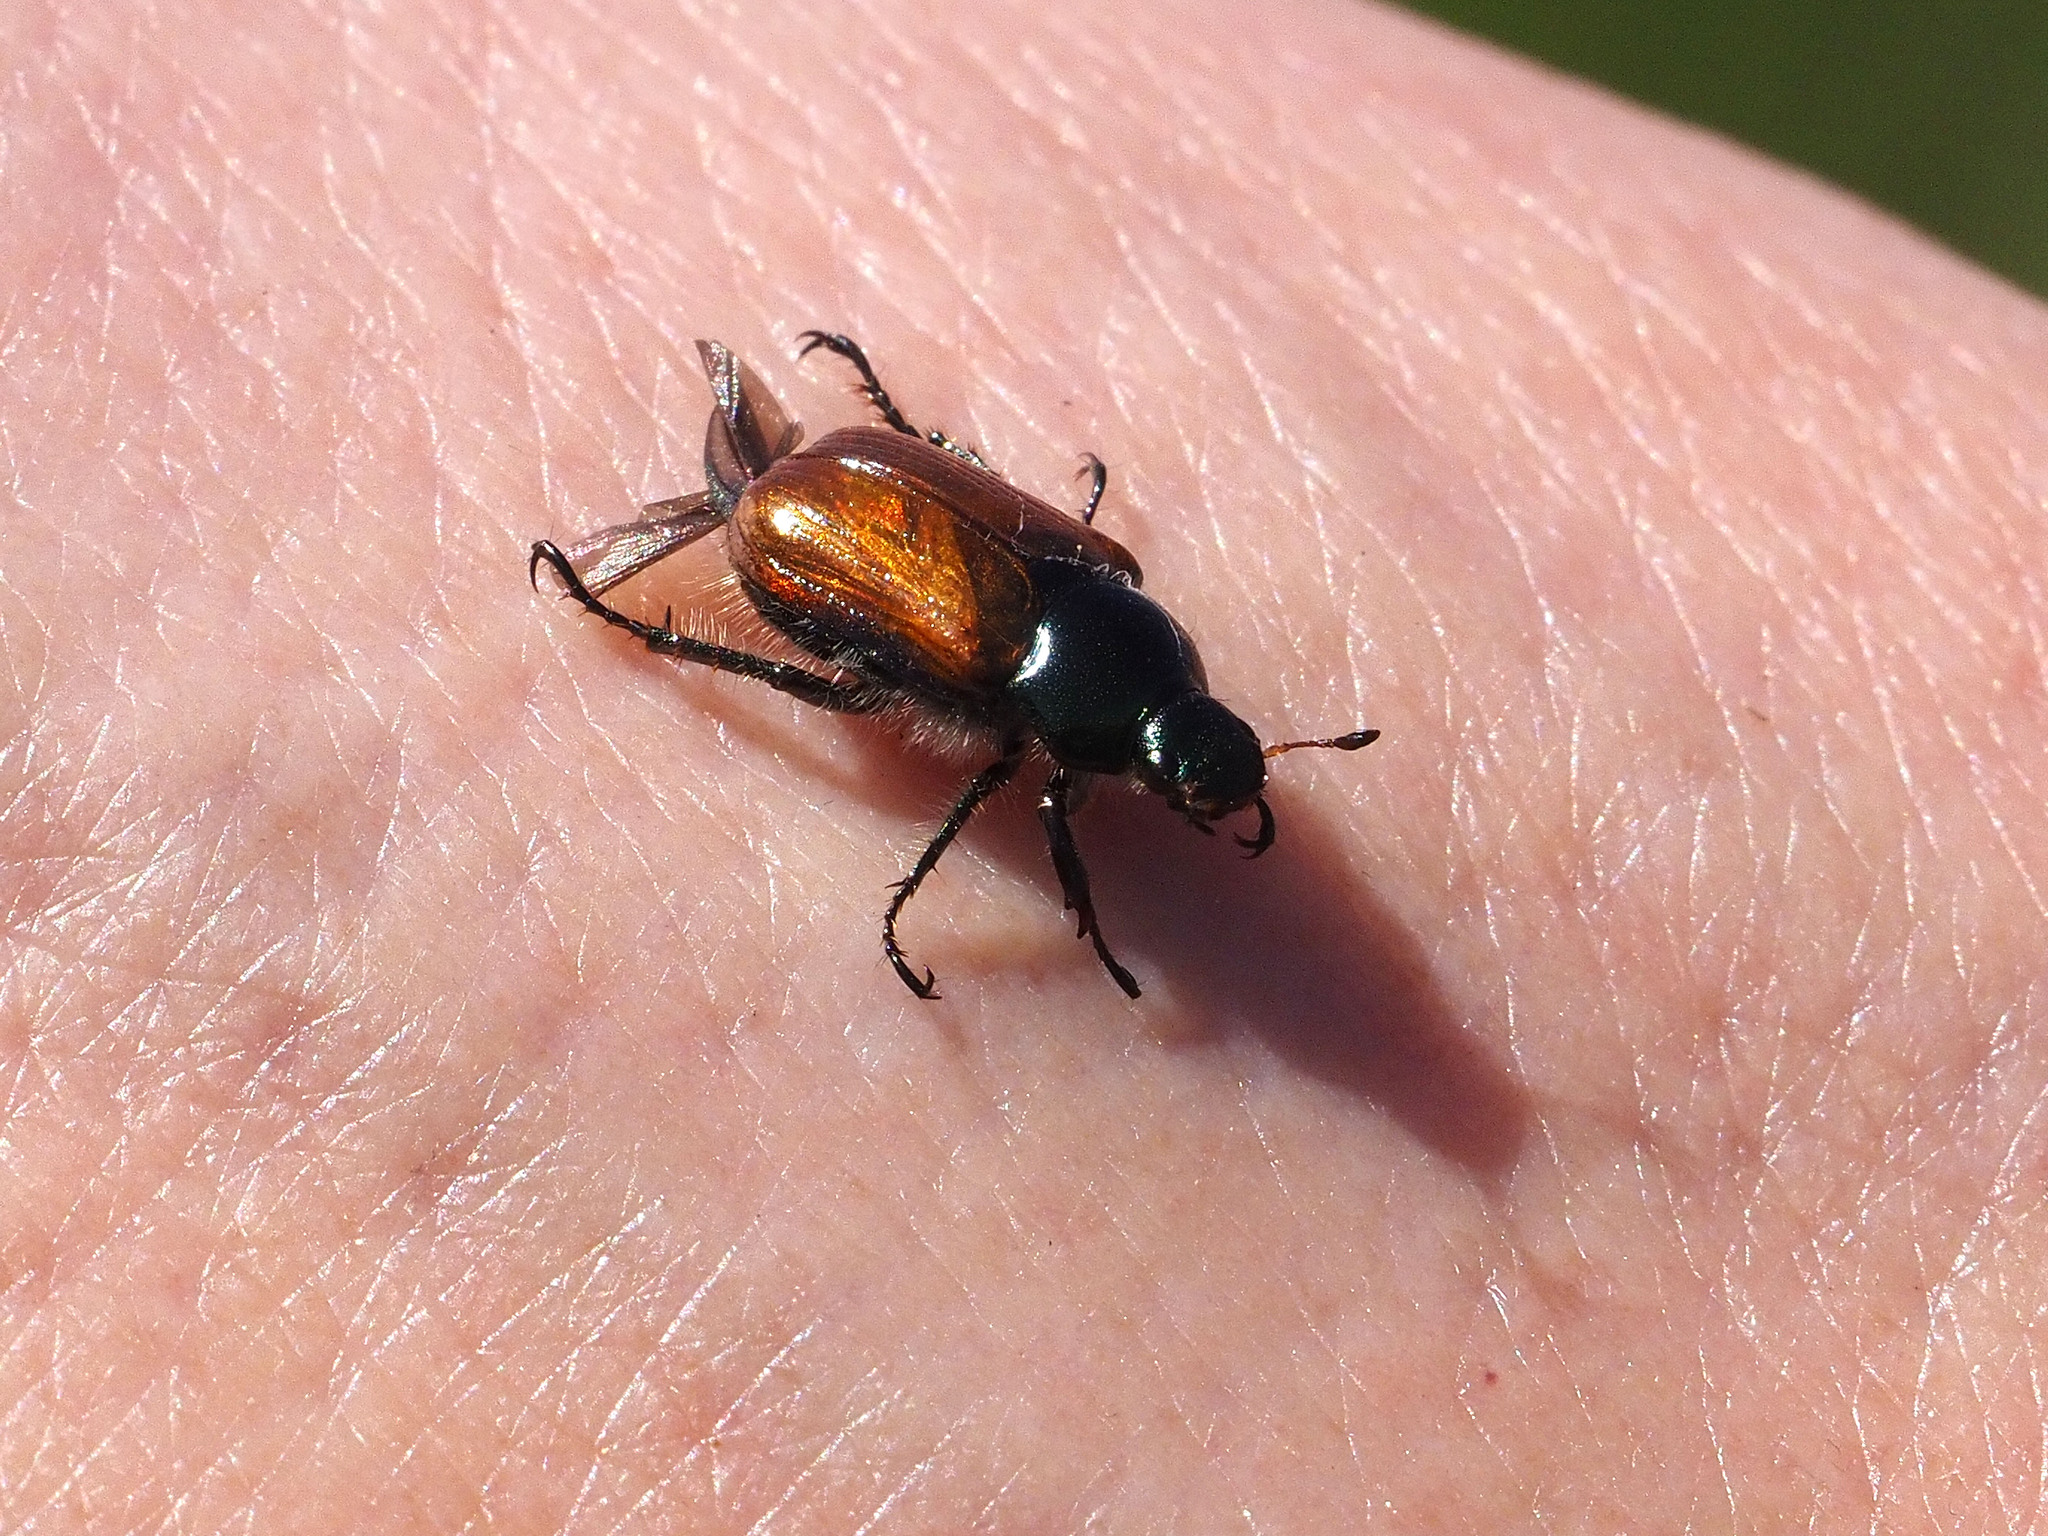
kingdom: Animalia
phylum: Arthropoda
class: Insecta
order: Coleoptera
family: Scarabaeidae
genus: Phyllopertha
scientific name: Phyllopertha horticola
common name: Garden chafer
